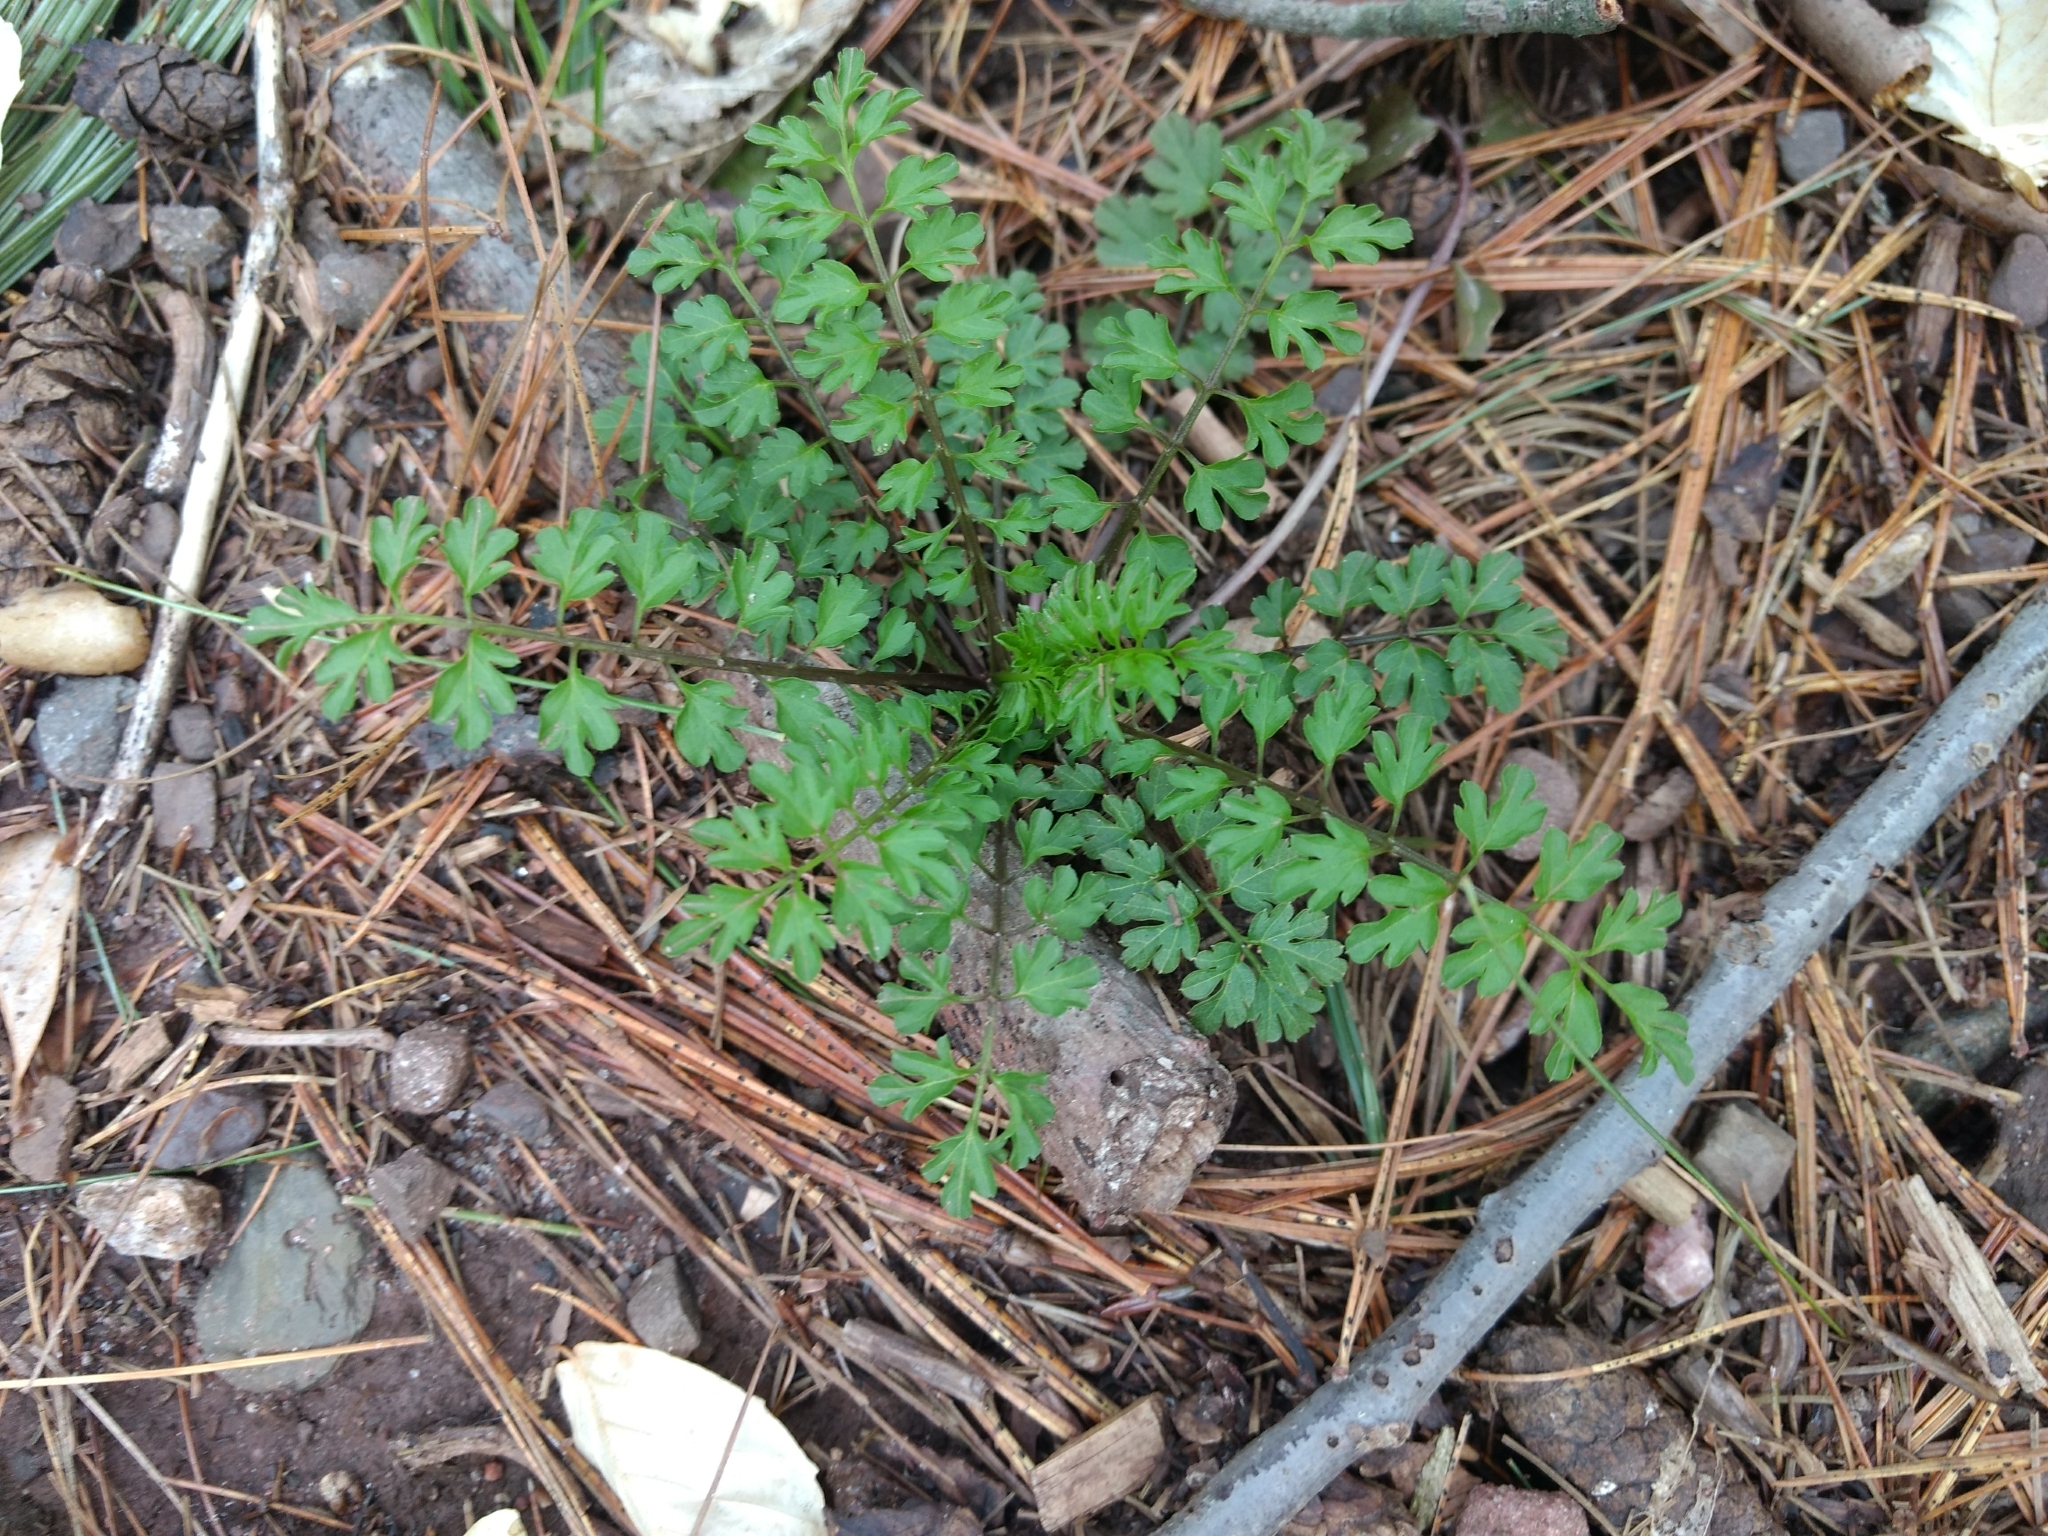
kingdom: Plantae
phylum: Tracheophyta
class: Magnoliopsida
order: Brassicales
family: Brassicaceae
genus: Cardamine
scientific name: Cardamine impatiens
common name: Narrow-leaved bitter-cress
